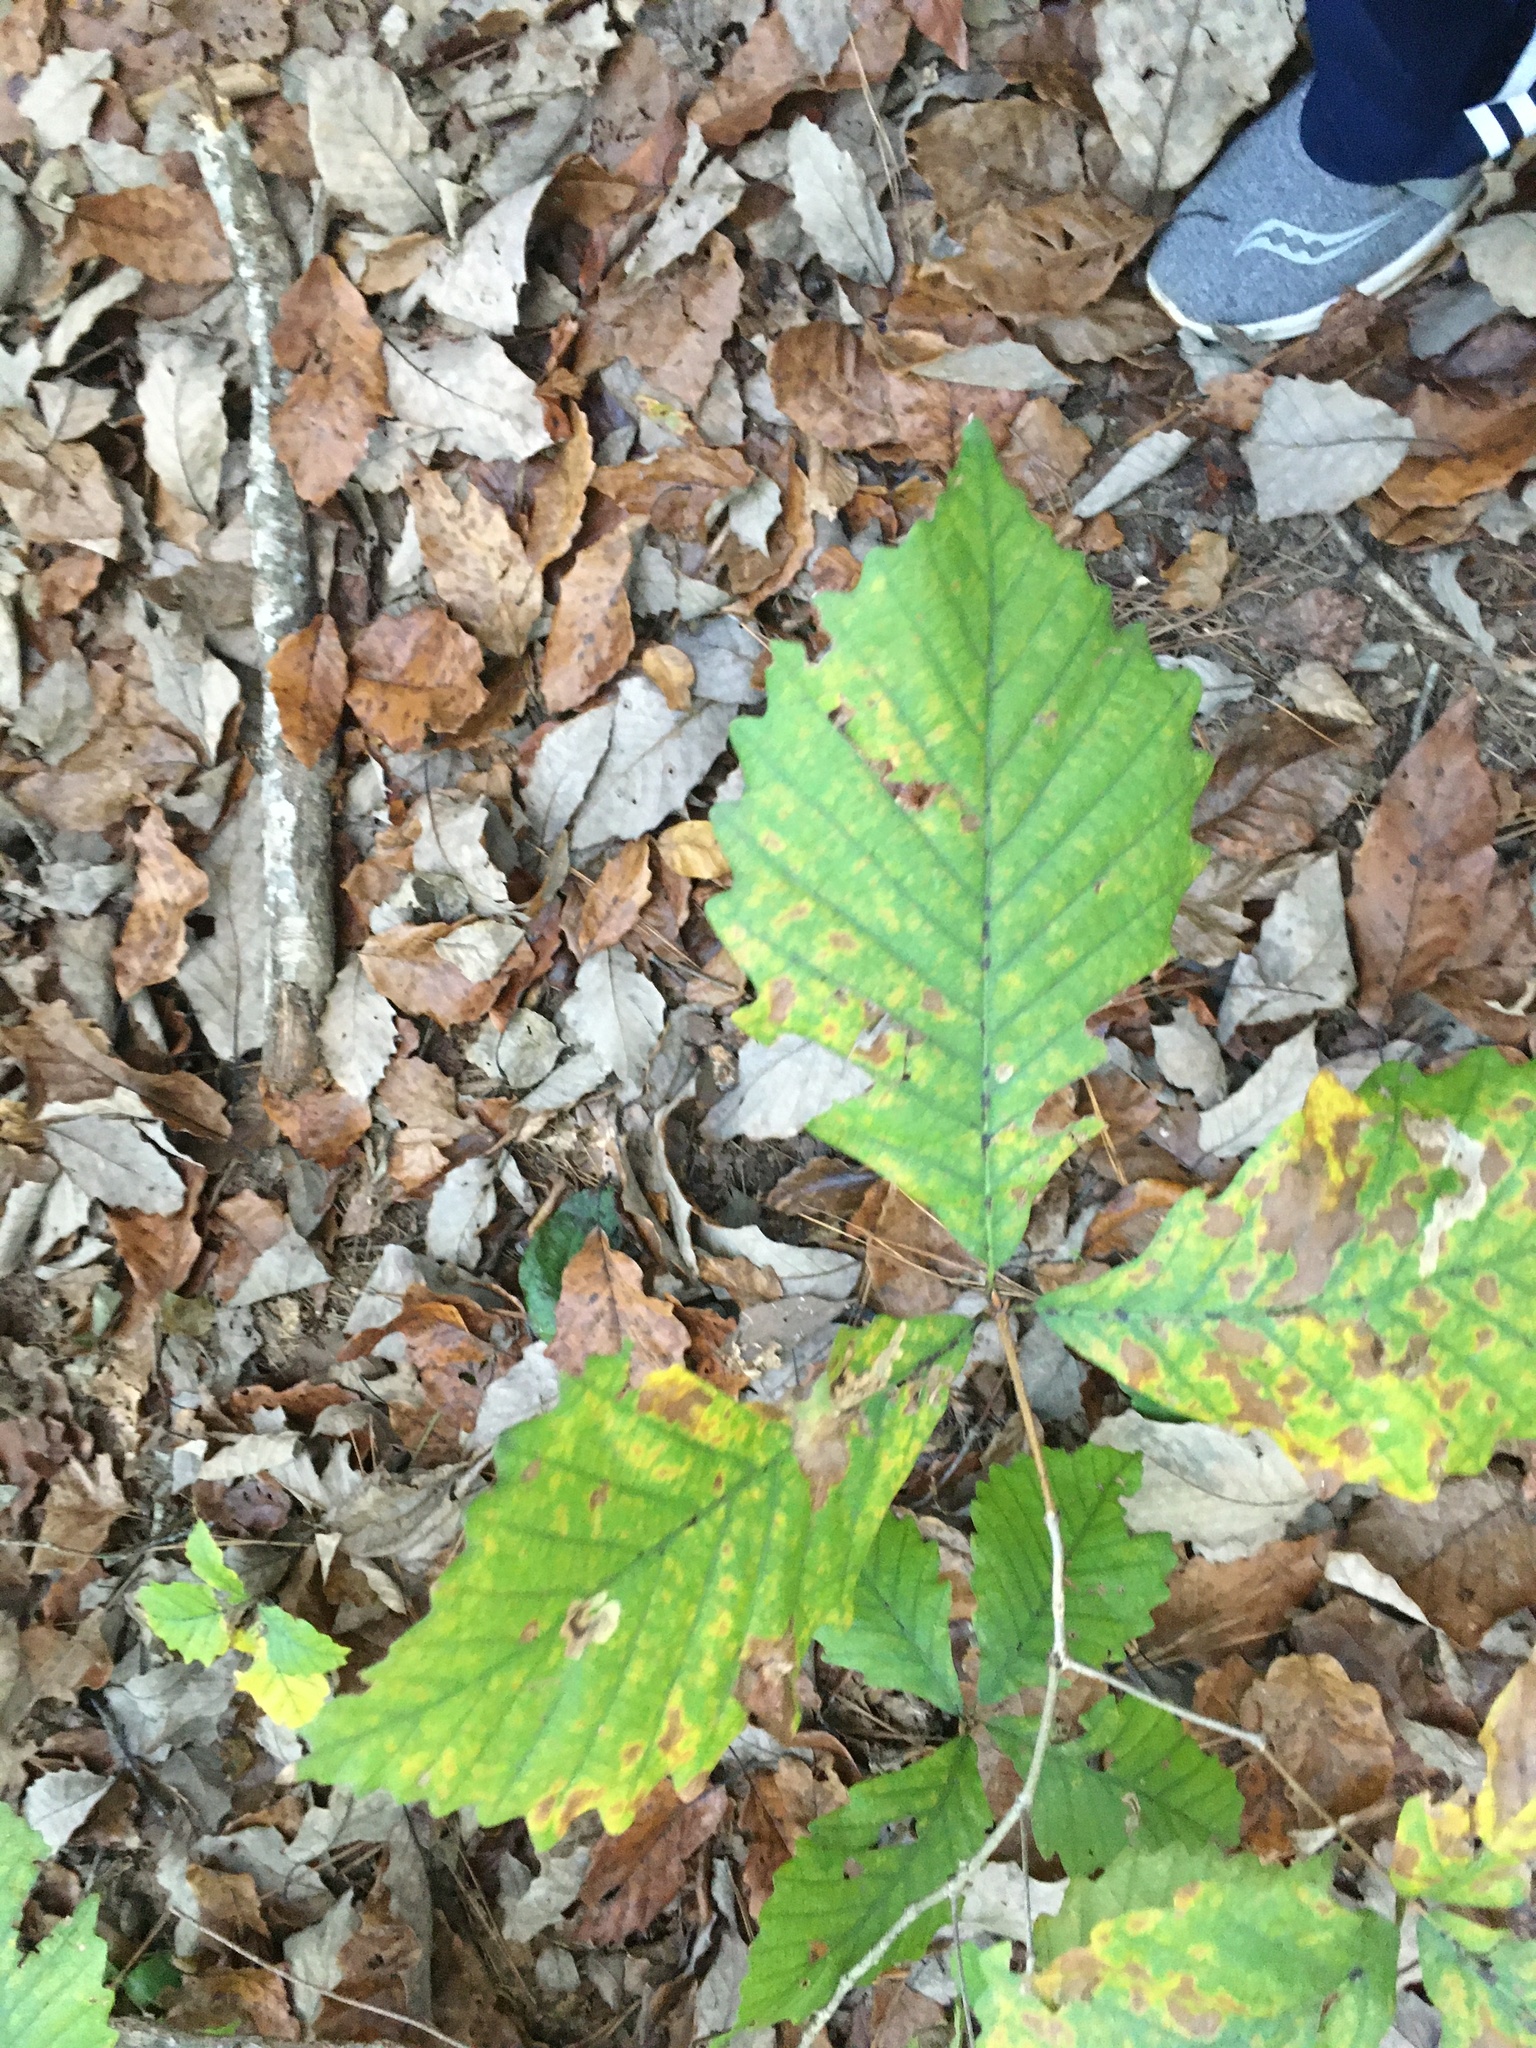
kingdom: Plantae
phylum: Tracheophyta
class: Magnoliopsida
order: Fagales
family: Fagaceae
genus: Quercus
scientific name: Quercus michauxii
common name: Swamp chestnut oak
